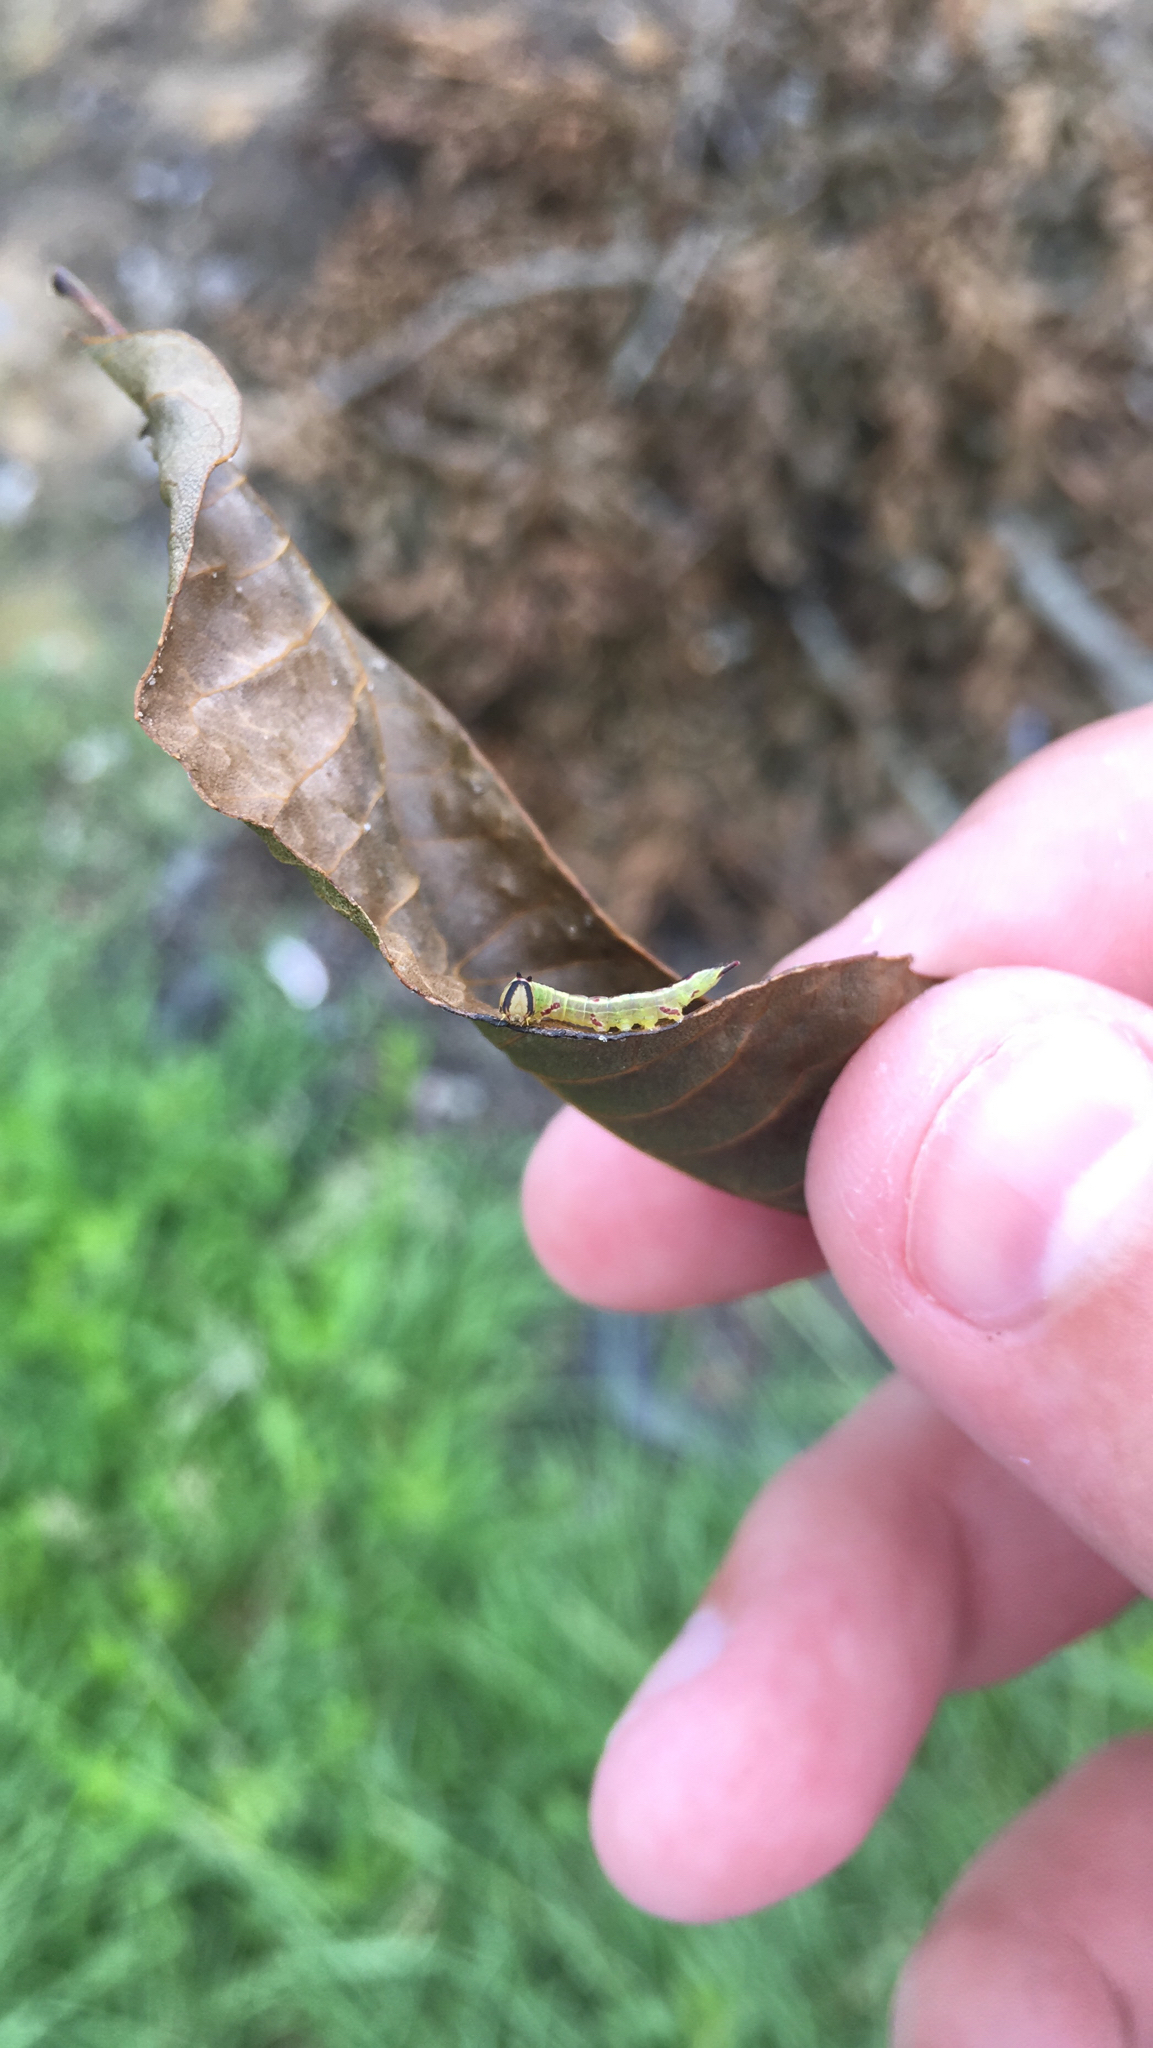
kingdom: Animalia
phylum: Arthropoda
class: Insecta
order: Lepidoptera
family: Notodontidae
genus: Disphragis
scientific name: Disphragis Cecrita guttivitta
